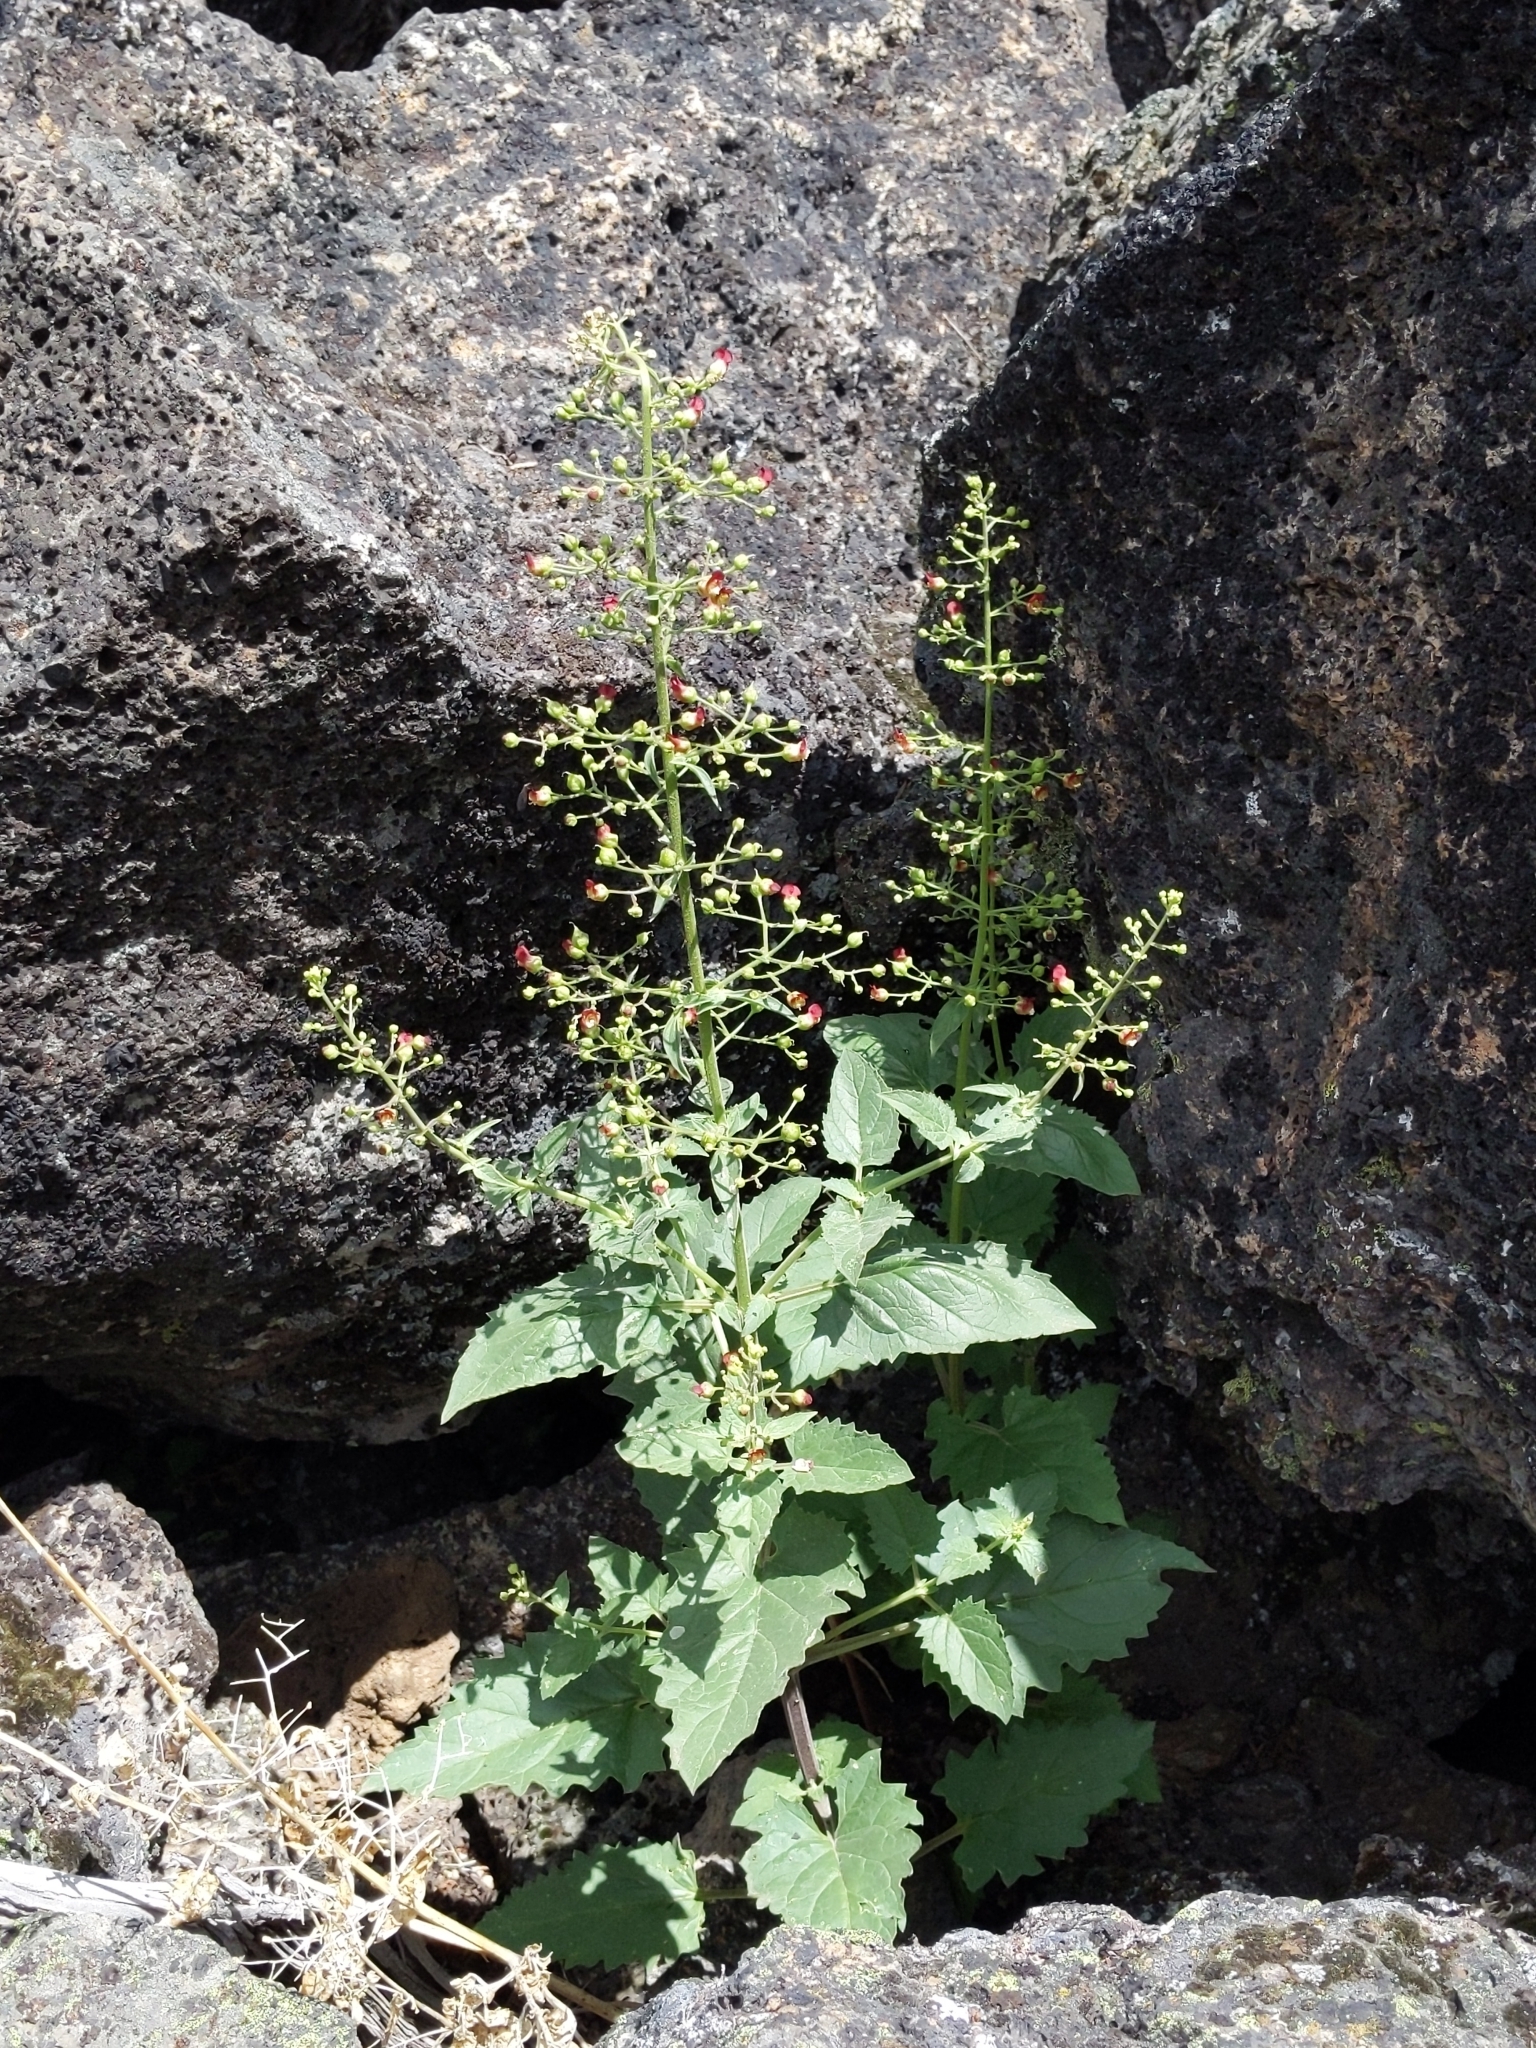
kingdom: Plantae
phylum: Tracheophyta
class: Magnoliopsida
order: Lamiales
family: Scrophulariaceae
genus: Scrophularia
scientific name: Scrophularia desertorum
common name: Desert figwort
